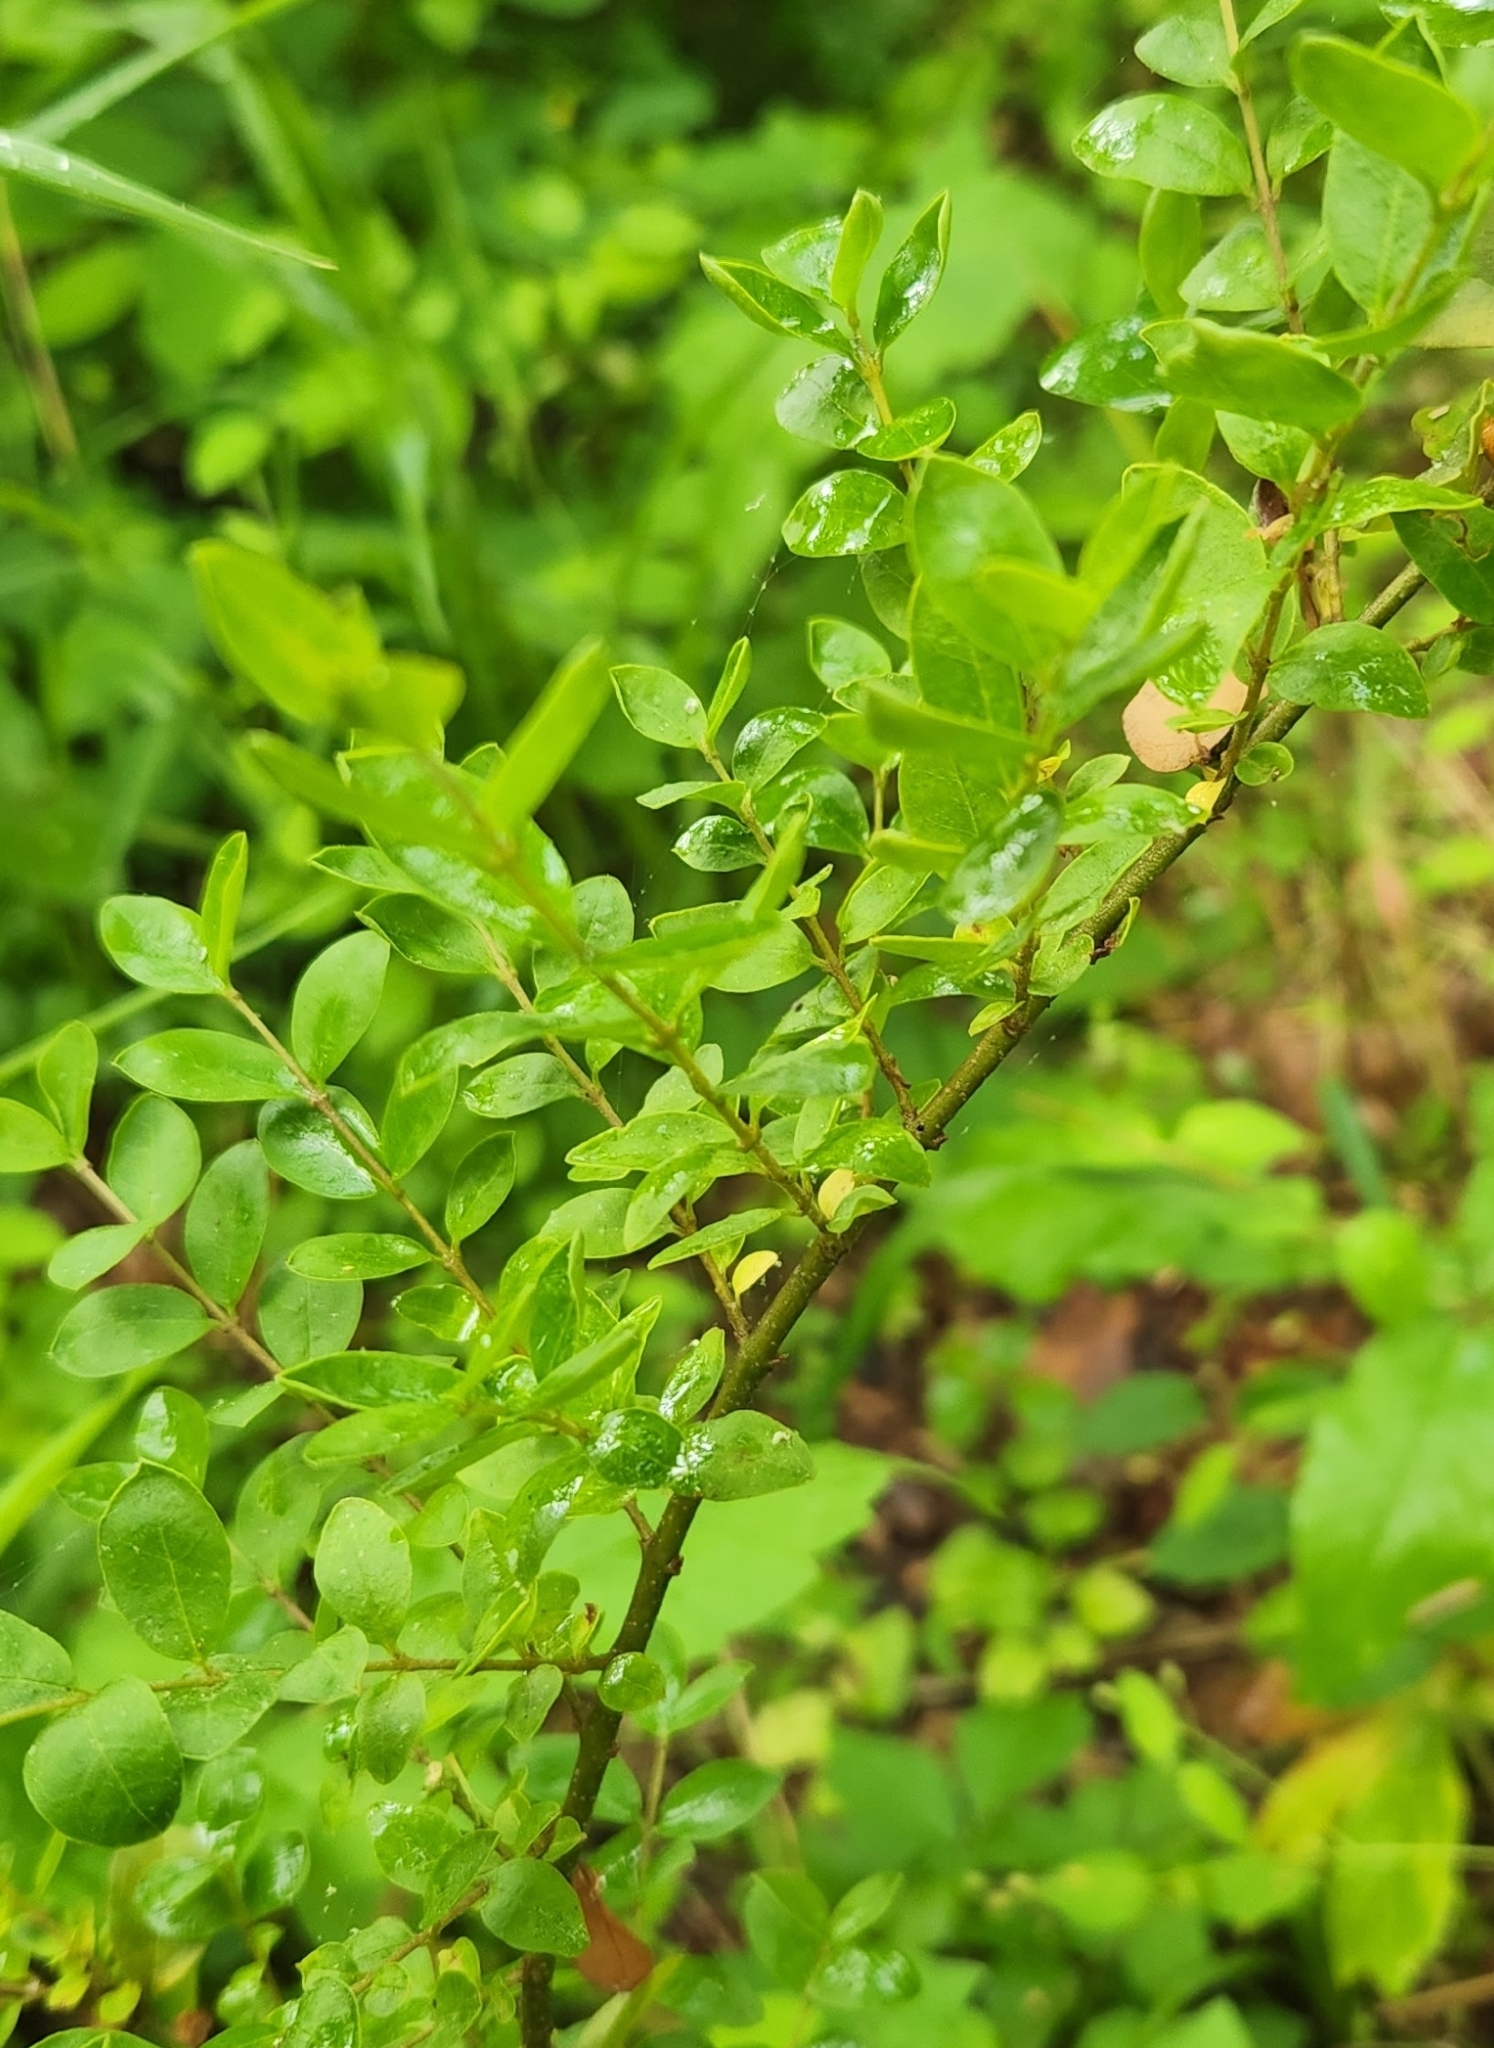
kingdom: Plantae
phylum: Tracheophyta
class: Magnoliopsida
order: Lamiales
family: Oleaceae
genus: Ligustrum
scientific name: Ligustrum sinense
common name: Chinese privet
